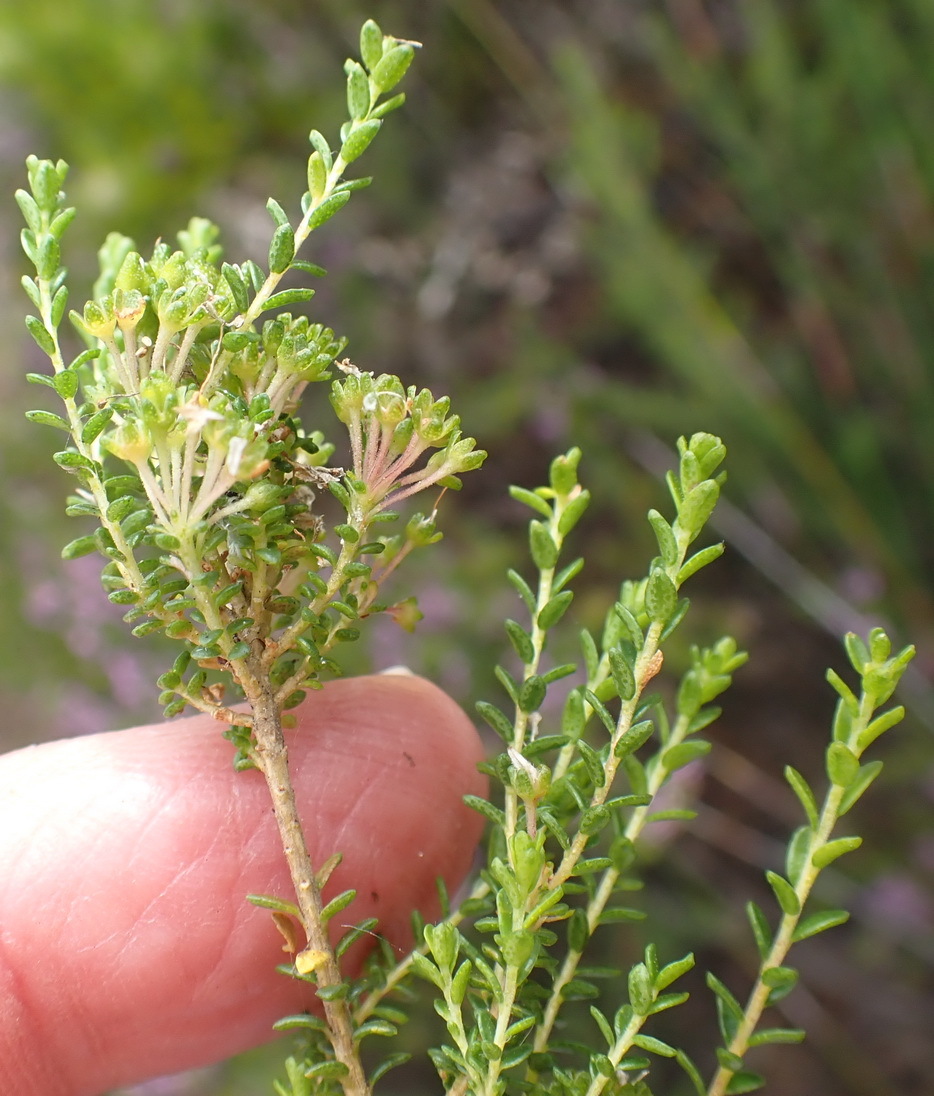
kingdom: Plantae
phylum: Tracheophyta
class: Magnoliopsida
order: Sapindales
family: Rutaceae
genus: Agathosma
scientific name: Agathosma capensis
